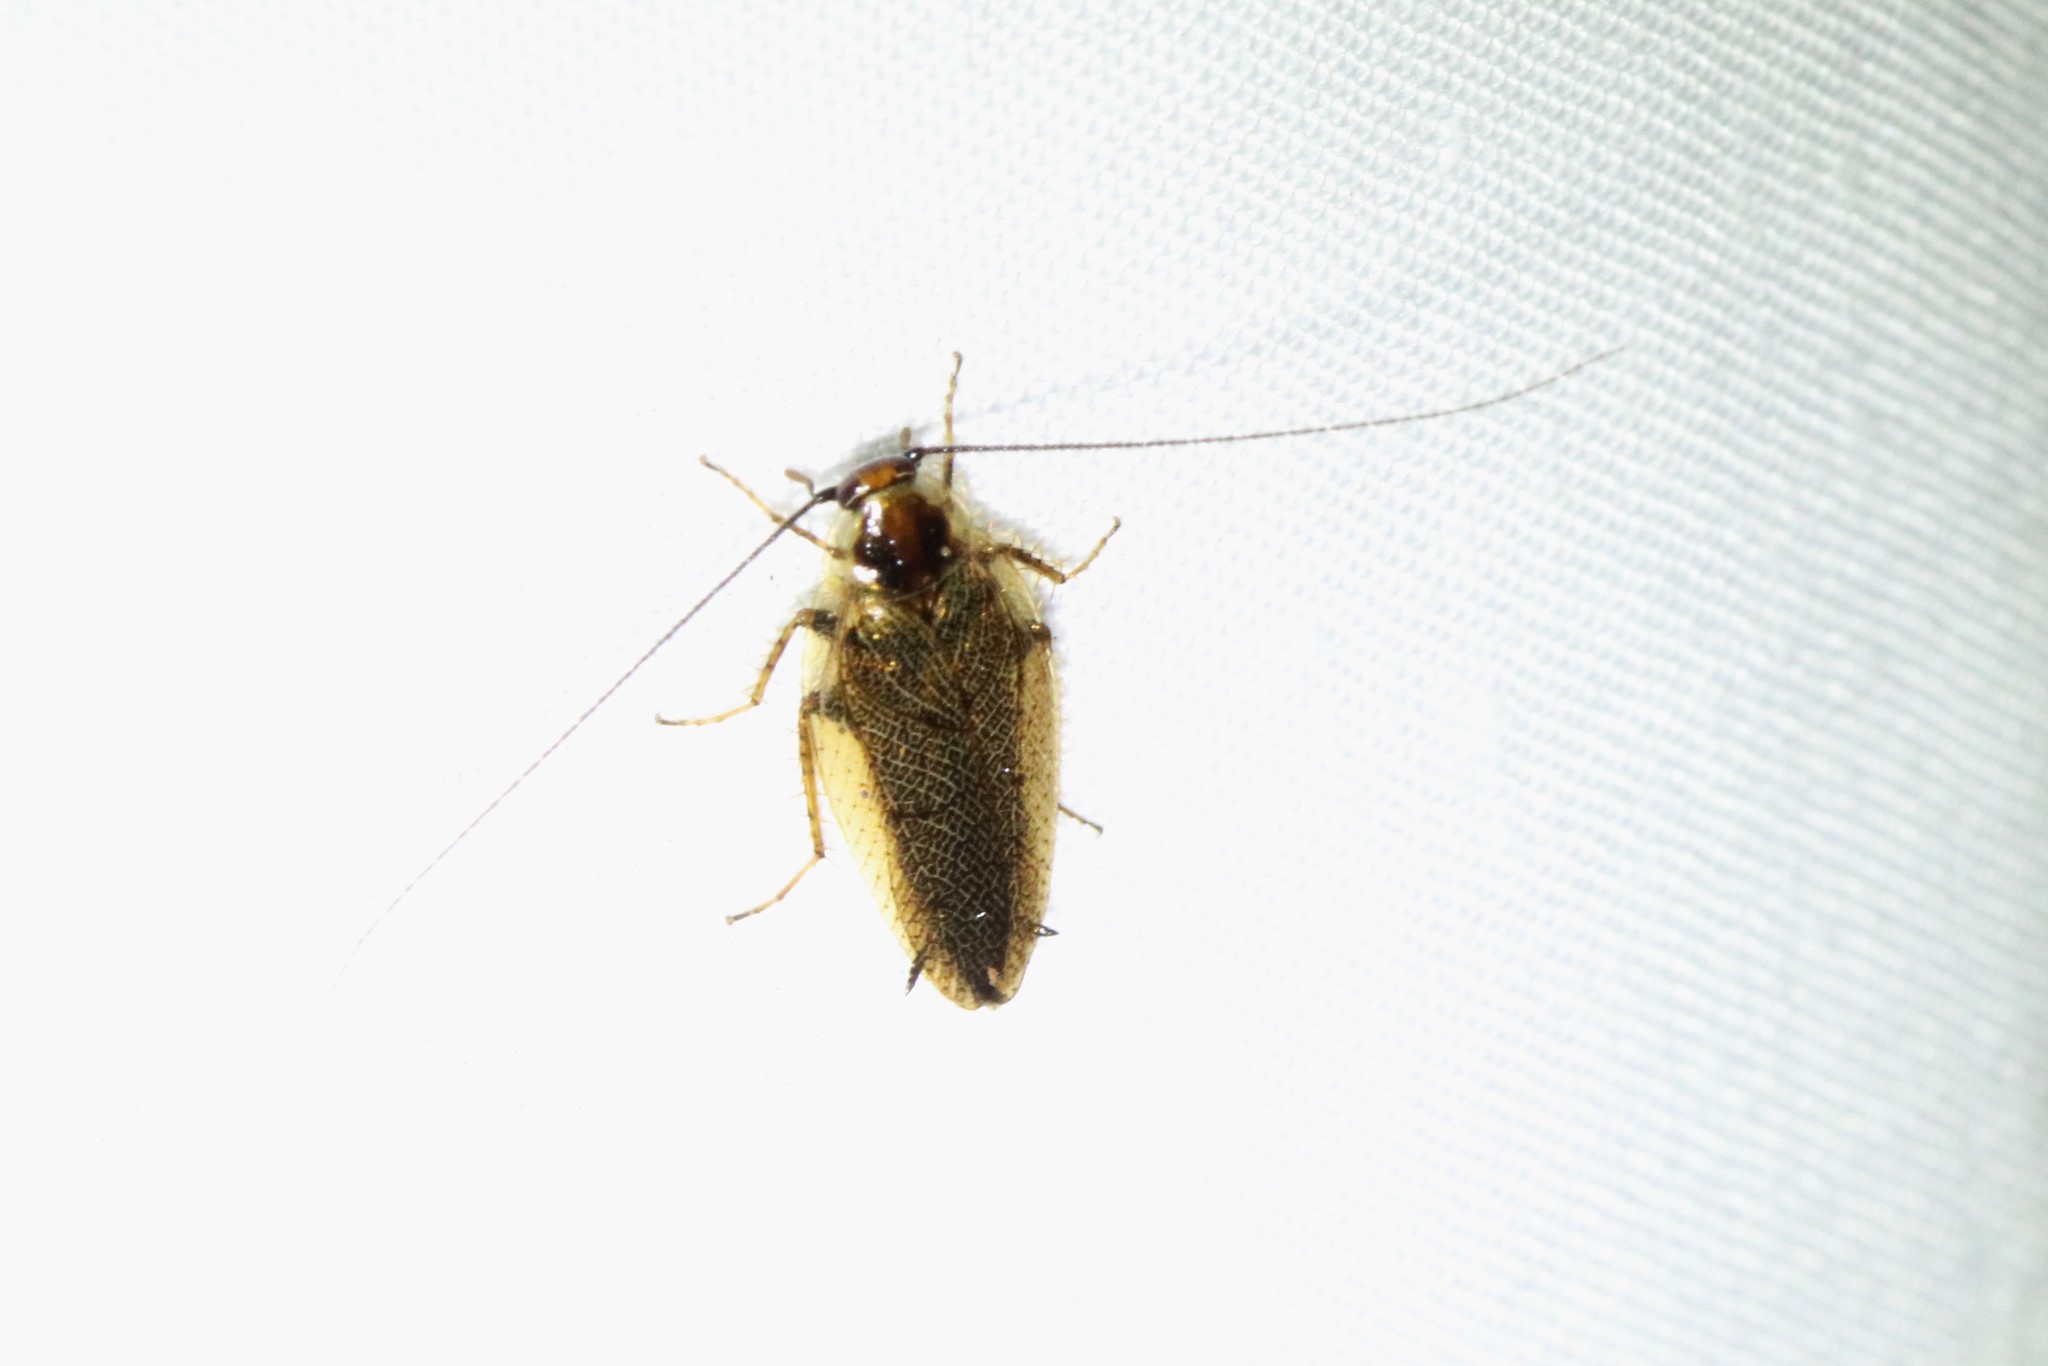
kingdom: Animalia
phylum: Arthropoda
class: Insecta
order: Blattodea
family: Ectobiidae
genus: Ectobius
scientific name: Ectobius lapponicus
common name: Dusky cockroach
